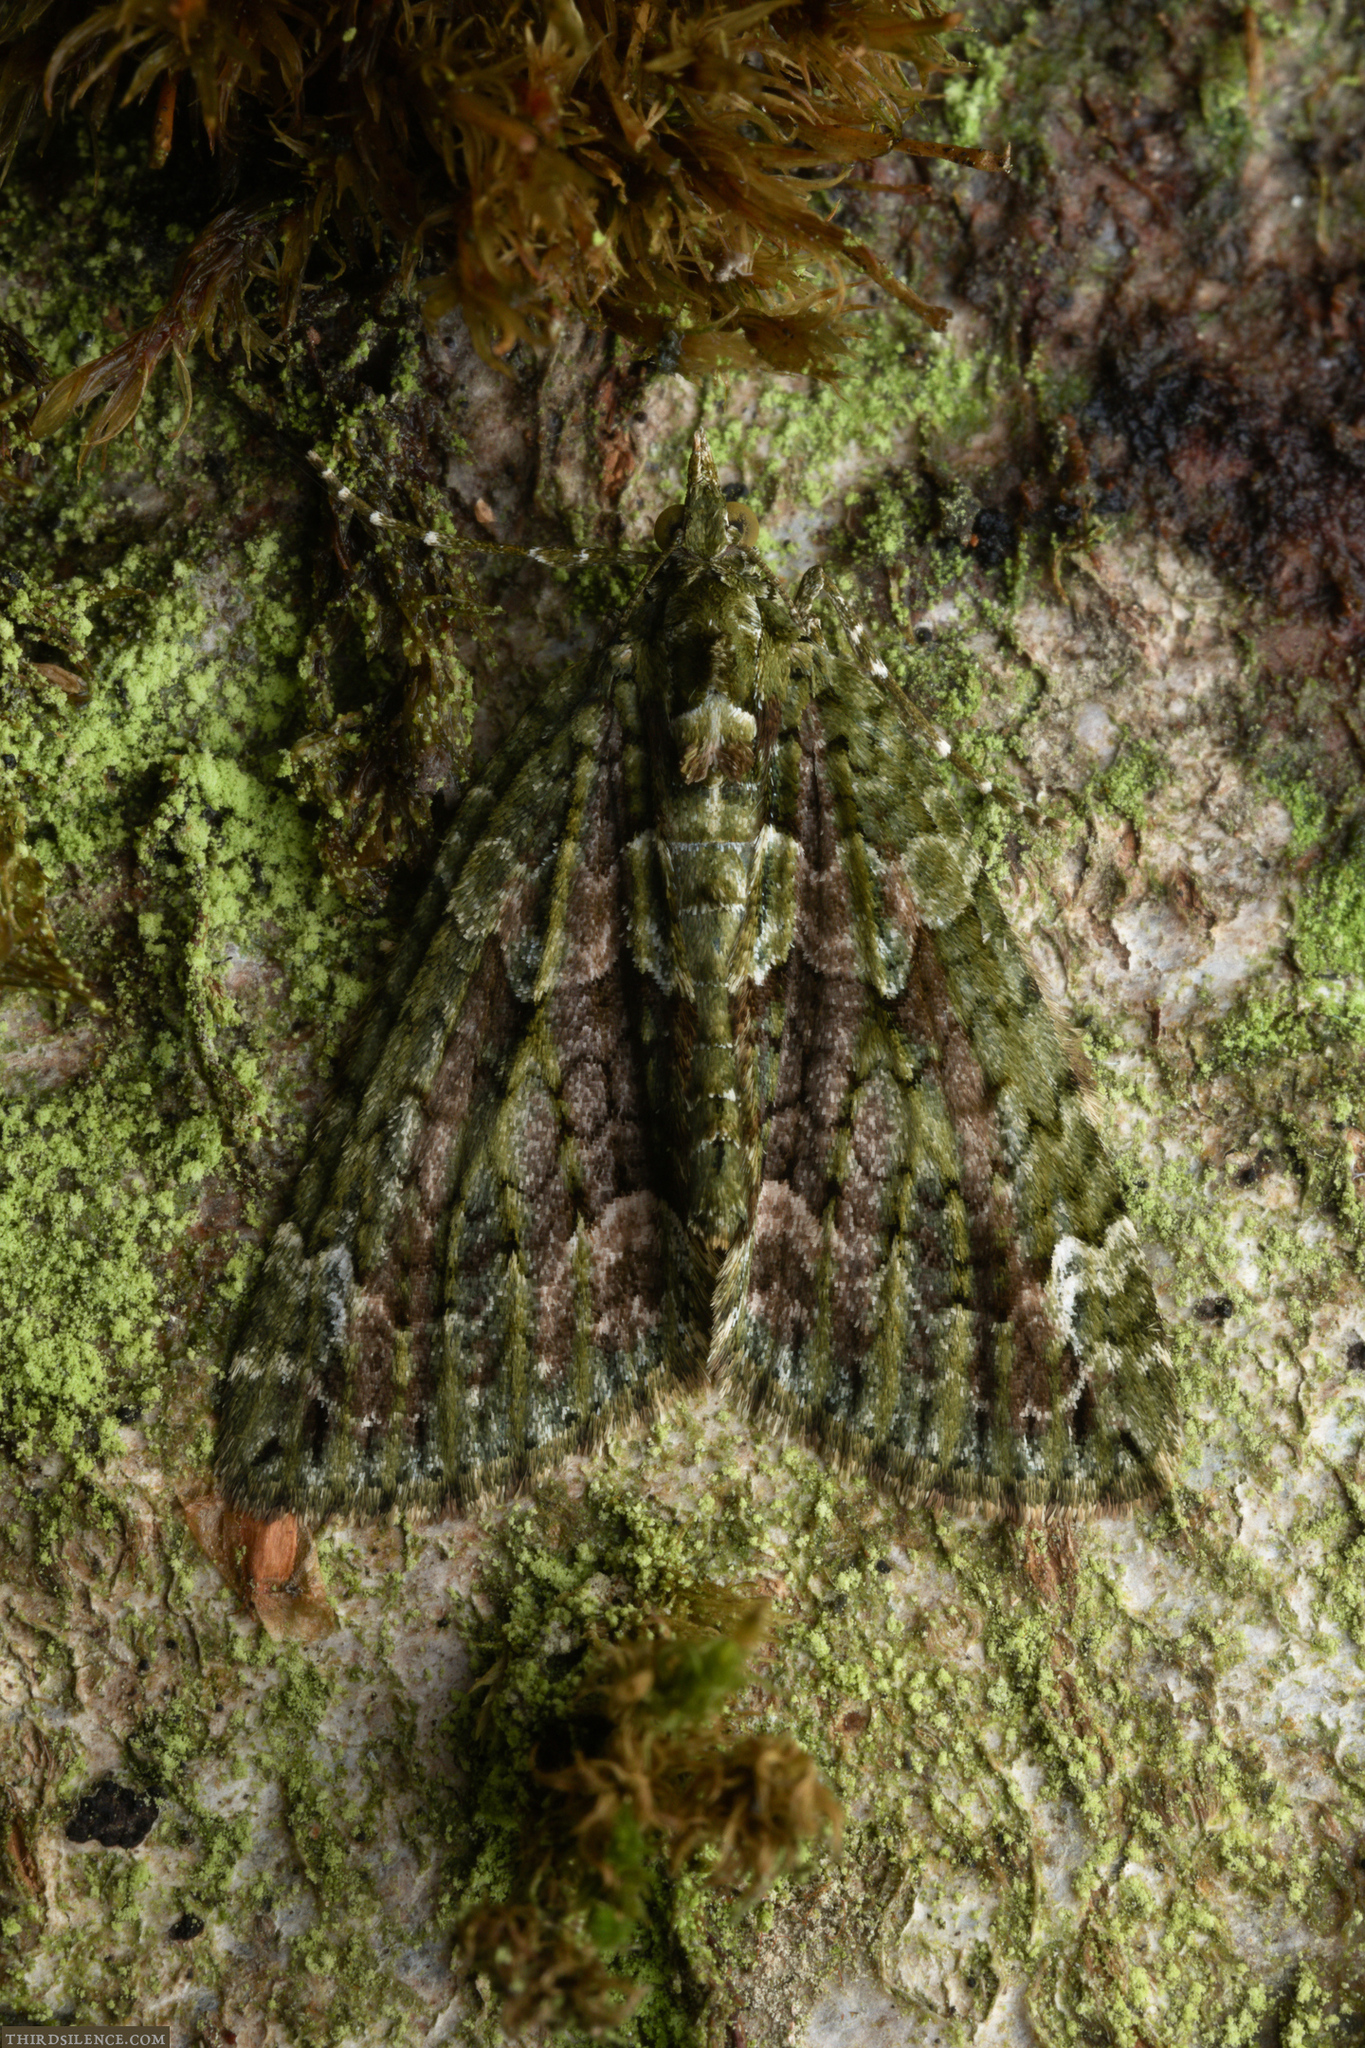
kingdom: Animalia
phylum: Arthropoda
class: Insecta
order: Lepidoptera
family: Geometridae
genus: Chloroclysta
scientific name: Chloroclysta siterata
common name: Red-green carpet
